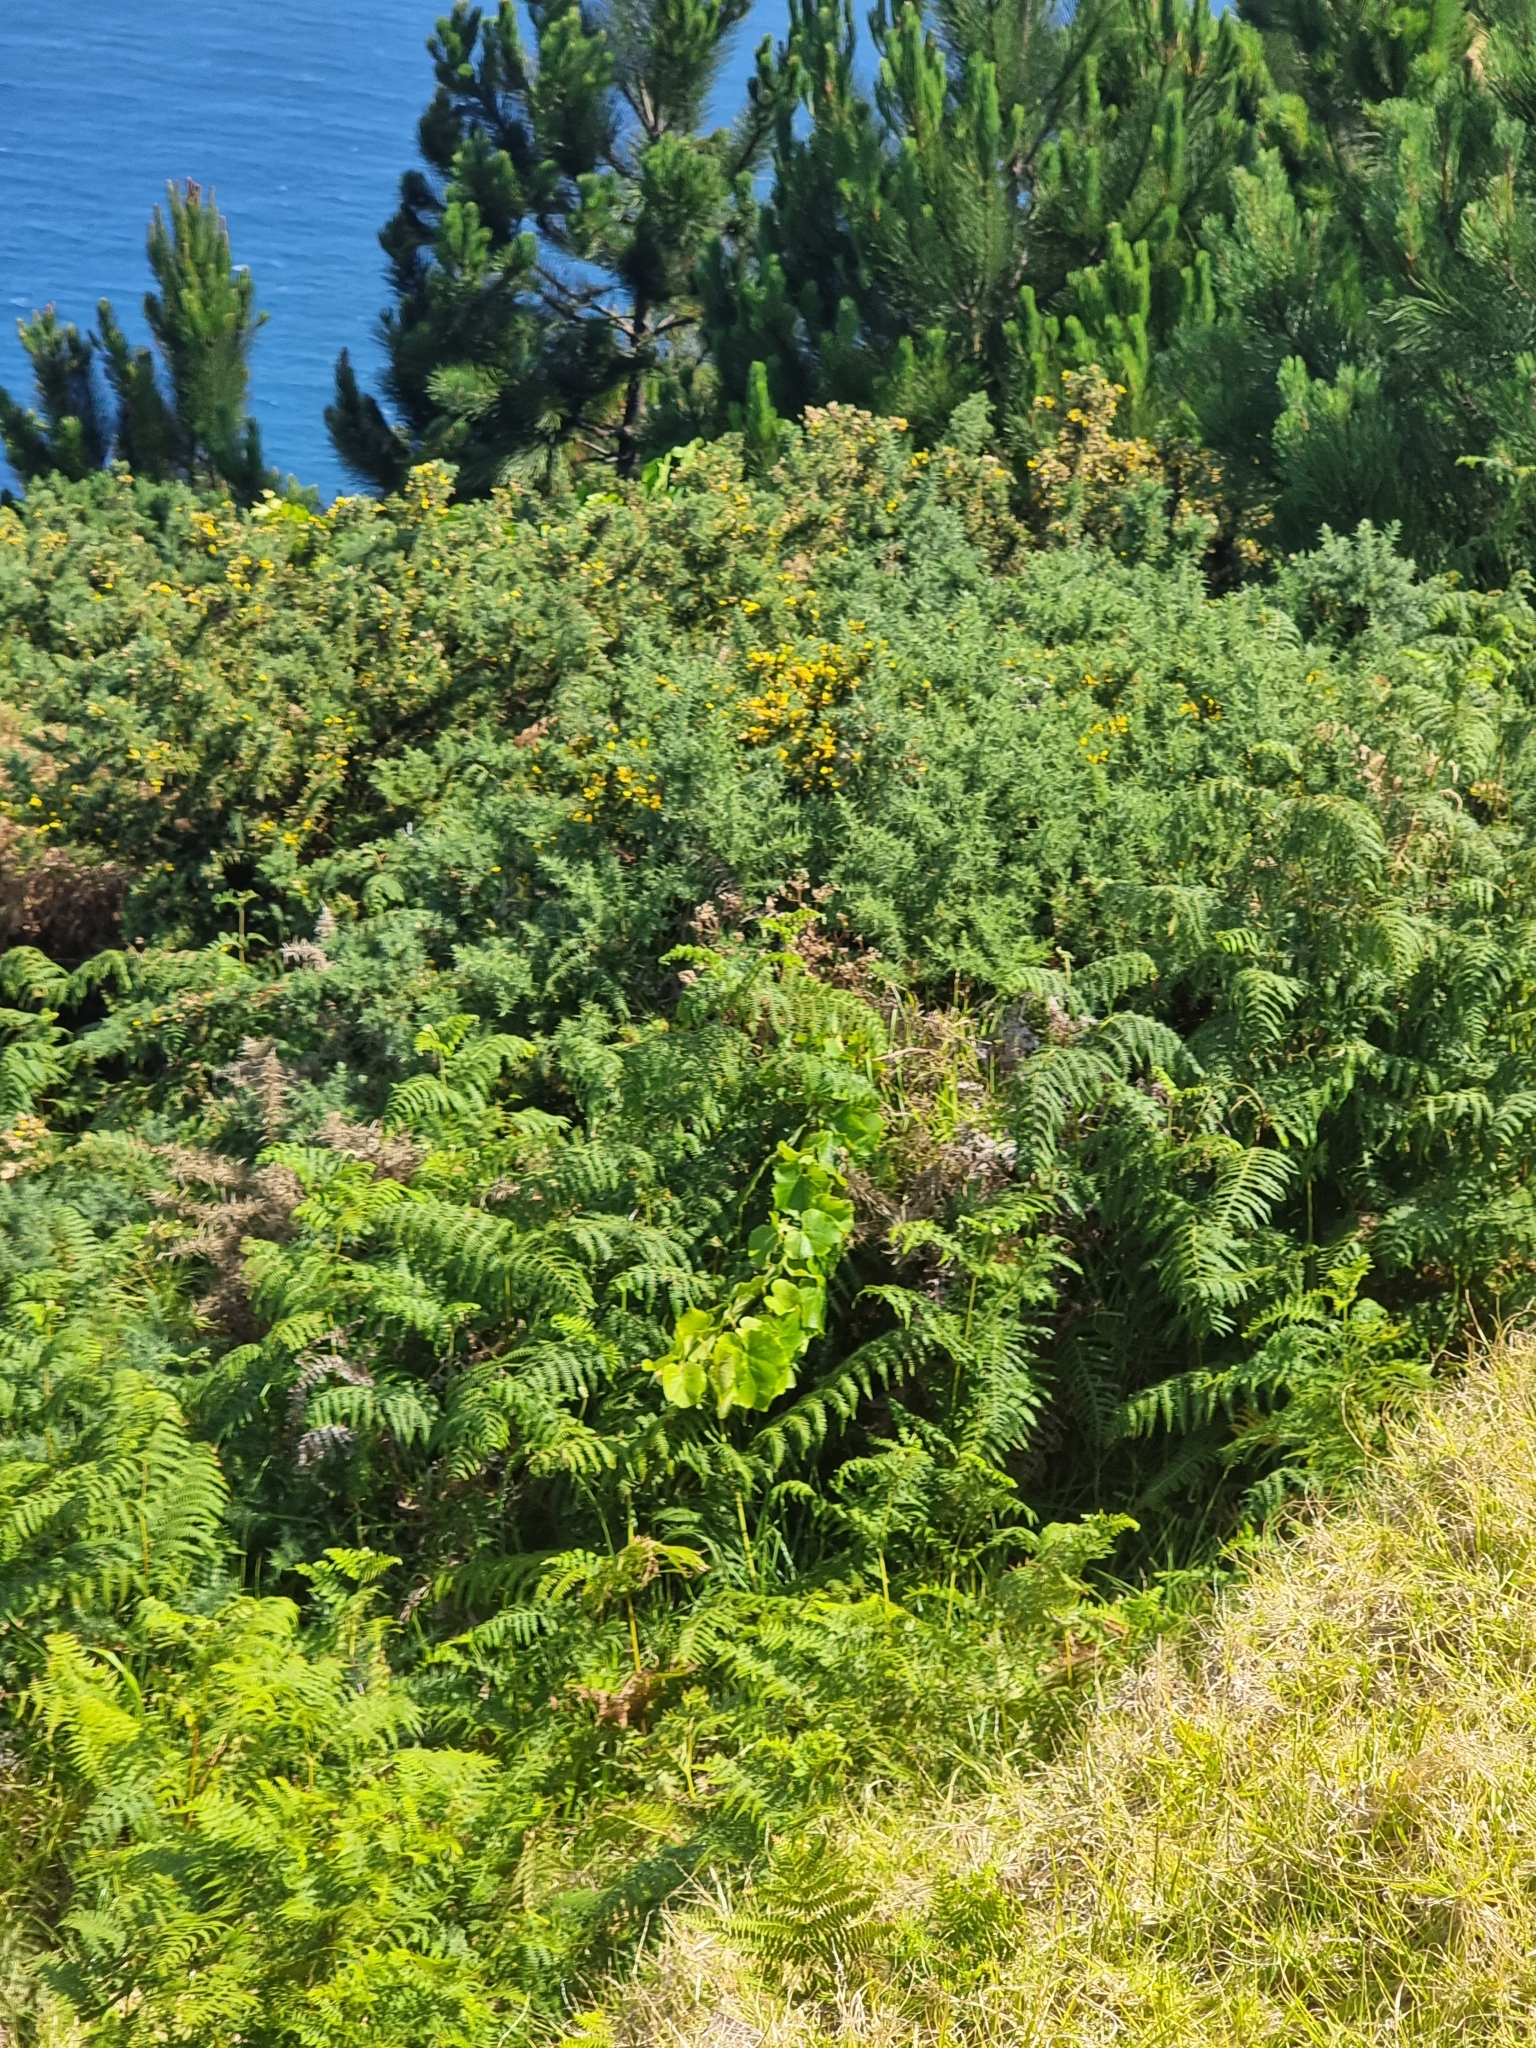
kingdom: Plantae
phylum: Tracheophyta
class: Magnoliopsida
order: Fabales
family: Fabaceae
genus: Ulex
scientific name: Ulex europaeus
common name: Common gorse
